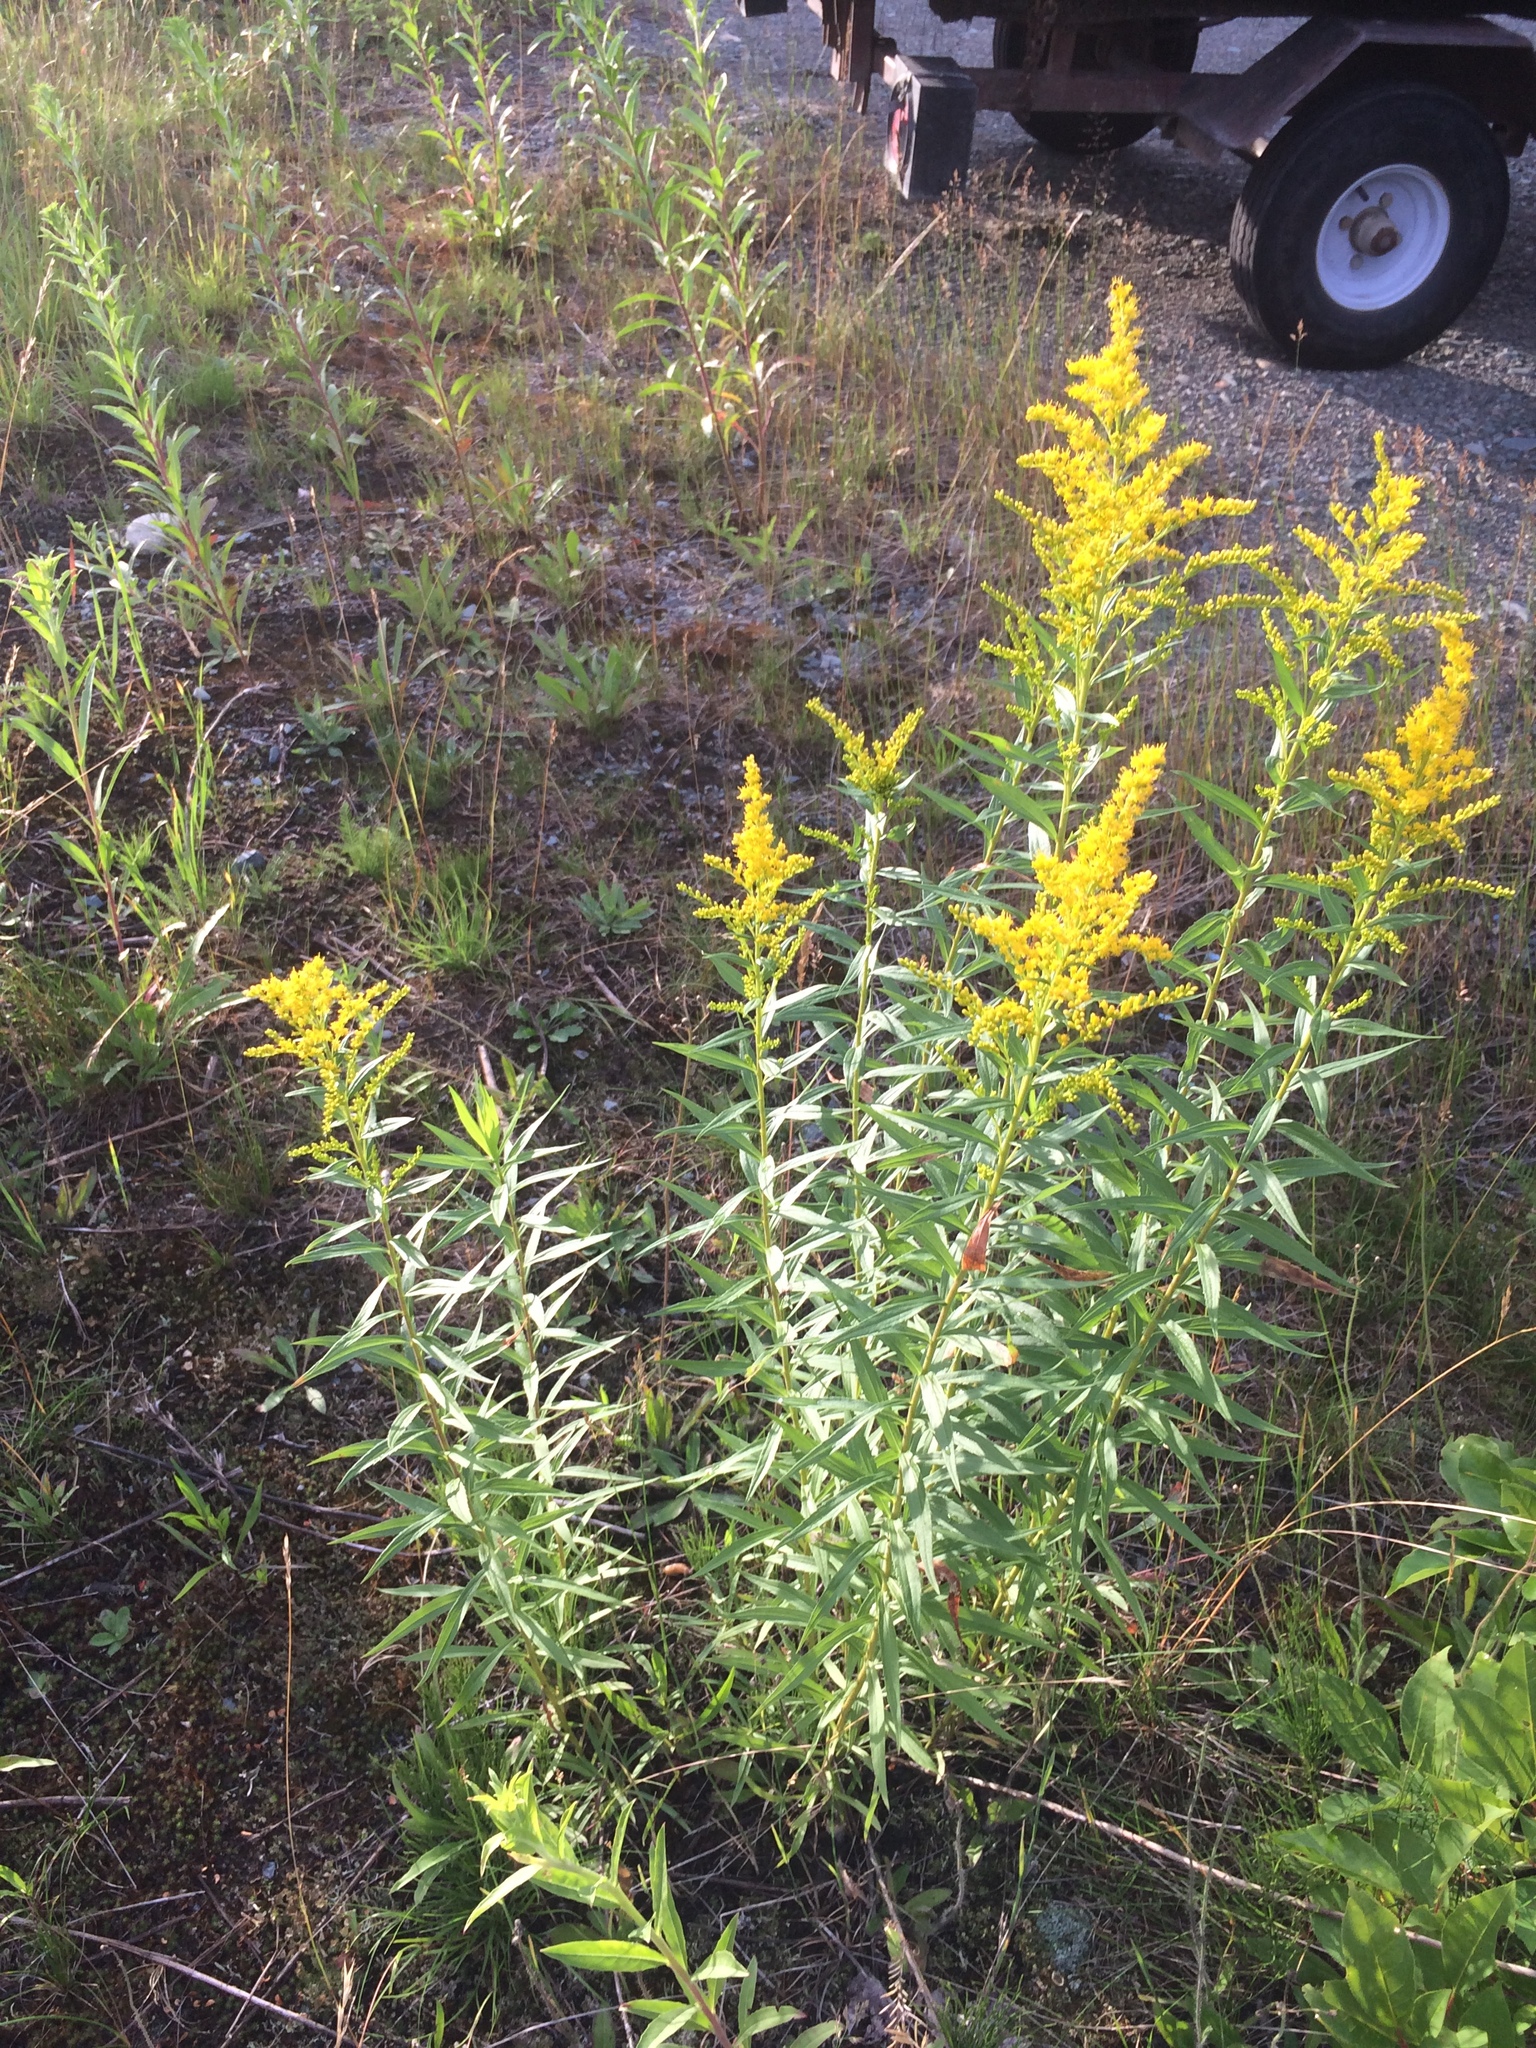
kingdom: Plantae
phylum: Tracheophyta
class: Magnoliopsida
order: Asterales
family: Asteraceae
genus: Solidago
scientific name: Solidago canadensis
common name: Canada goldenrod
